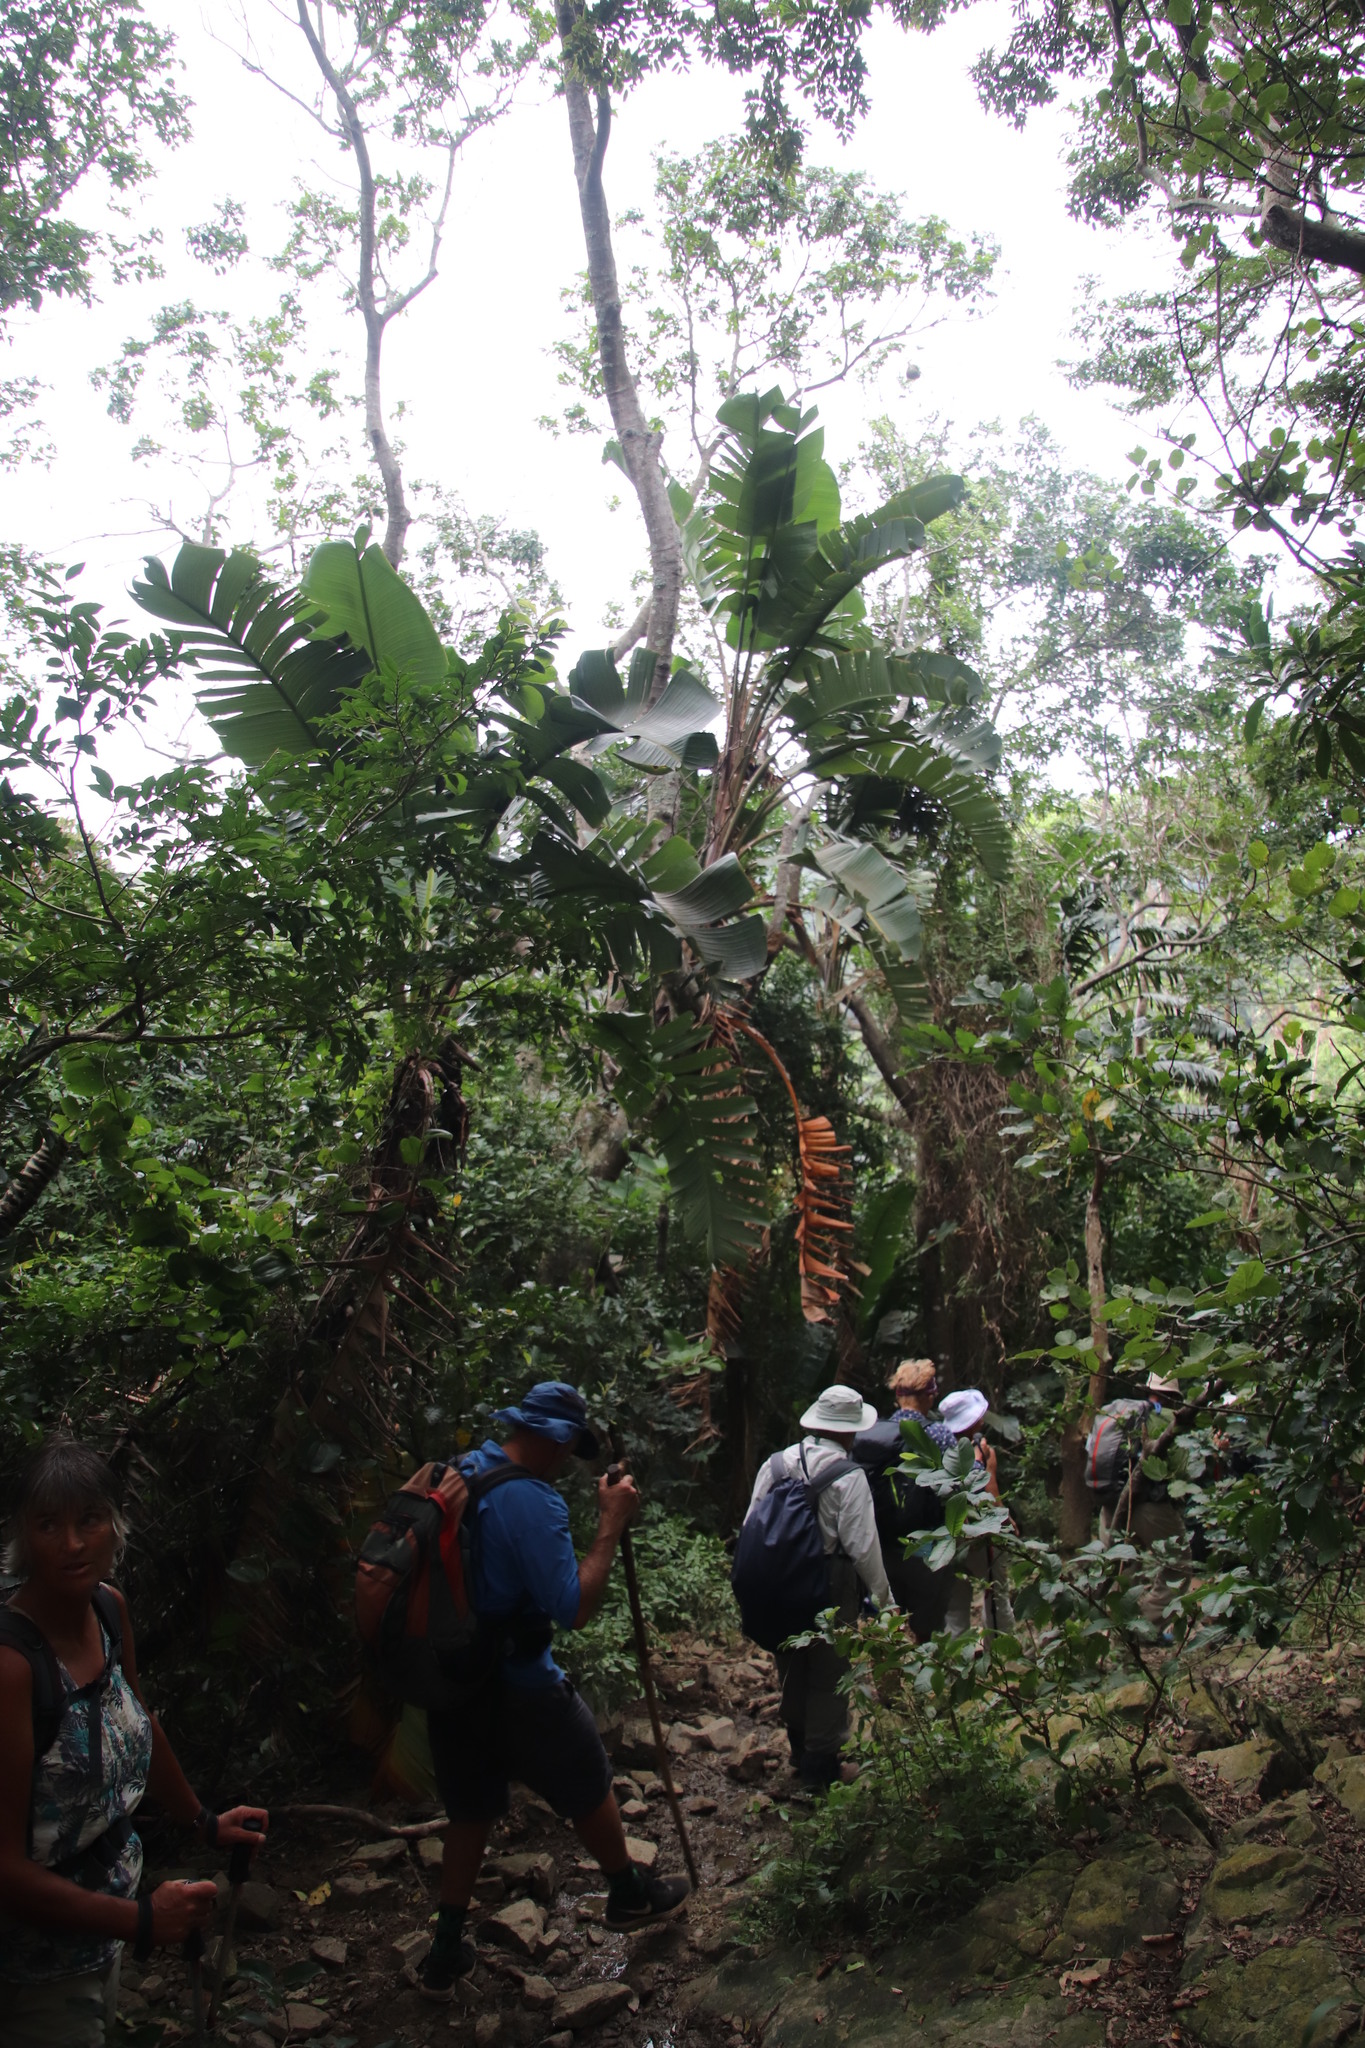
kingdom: Plantae
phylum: Tracheophyta
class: Liliopsida
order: Zingiberales
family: Strelitziaceae
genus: Strelitzia
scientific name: Strelitzia nicolai
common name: Bird-of-paradise tree
